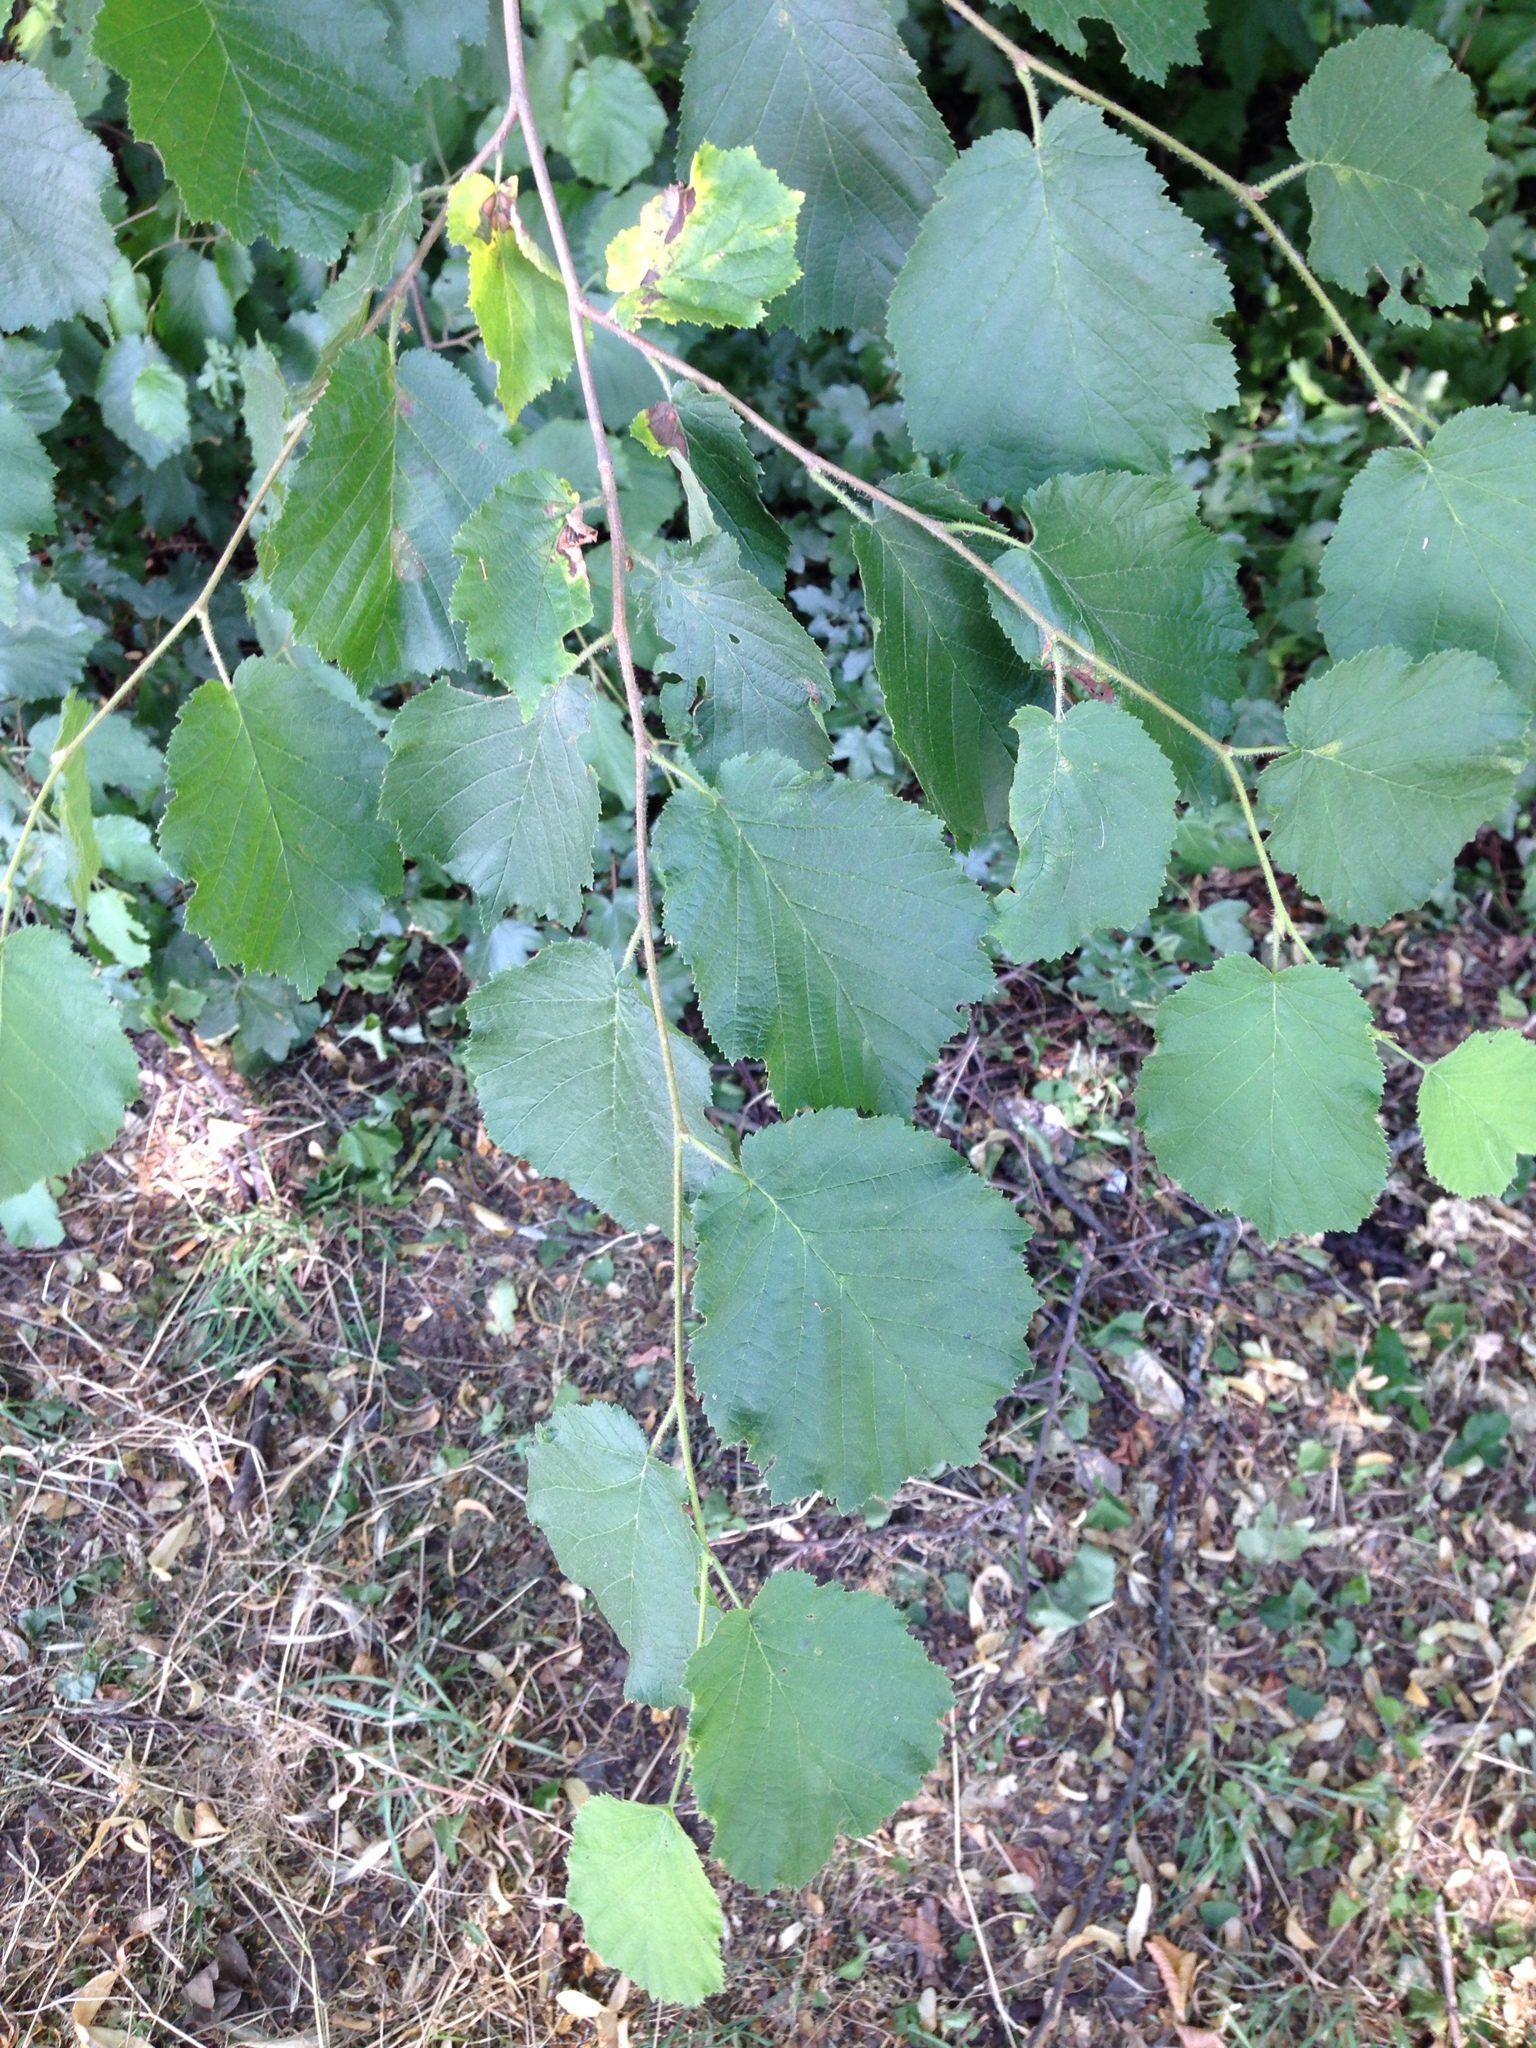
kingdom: Plantae
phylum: Tracheophyta
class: Magnoliopsida
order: Fagales
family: Betulaceae
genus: Corylus
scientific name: Corylus avellana
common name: European hazel
